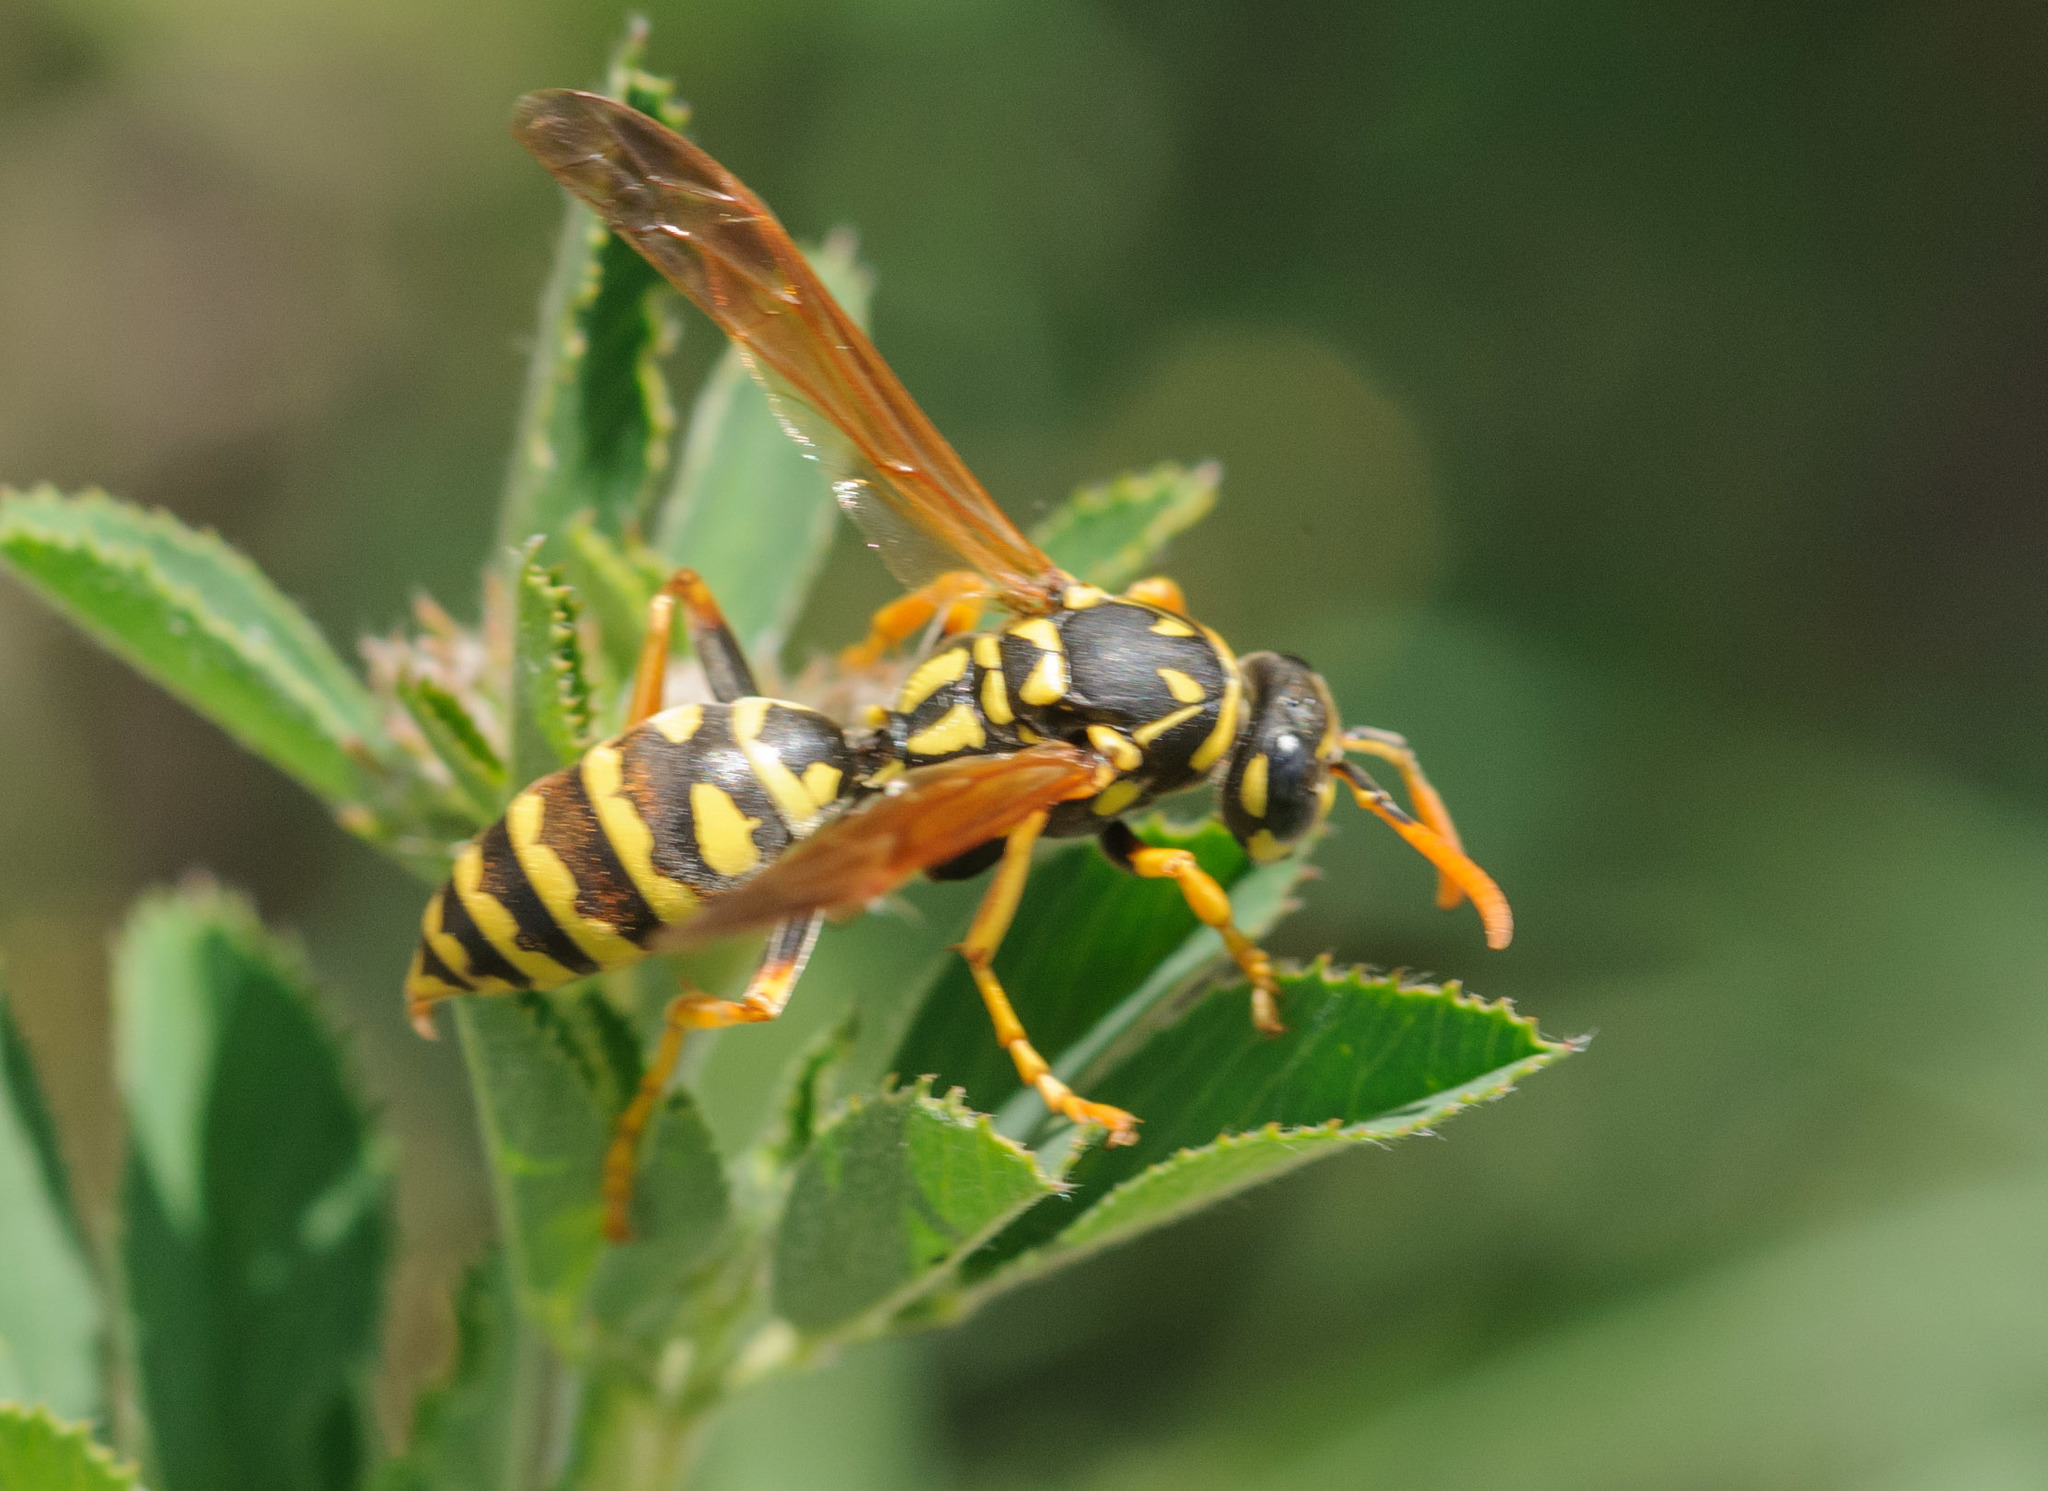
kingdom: Animalia
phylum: Arthropoda
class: Insecta
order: Hymenoptera
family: Eumenidae
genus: Polistes
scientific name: Polistes dominula
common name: Paper wasp
